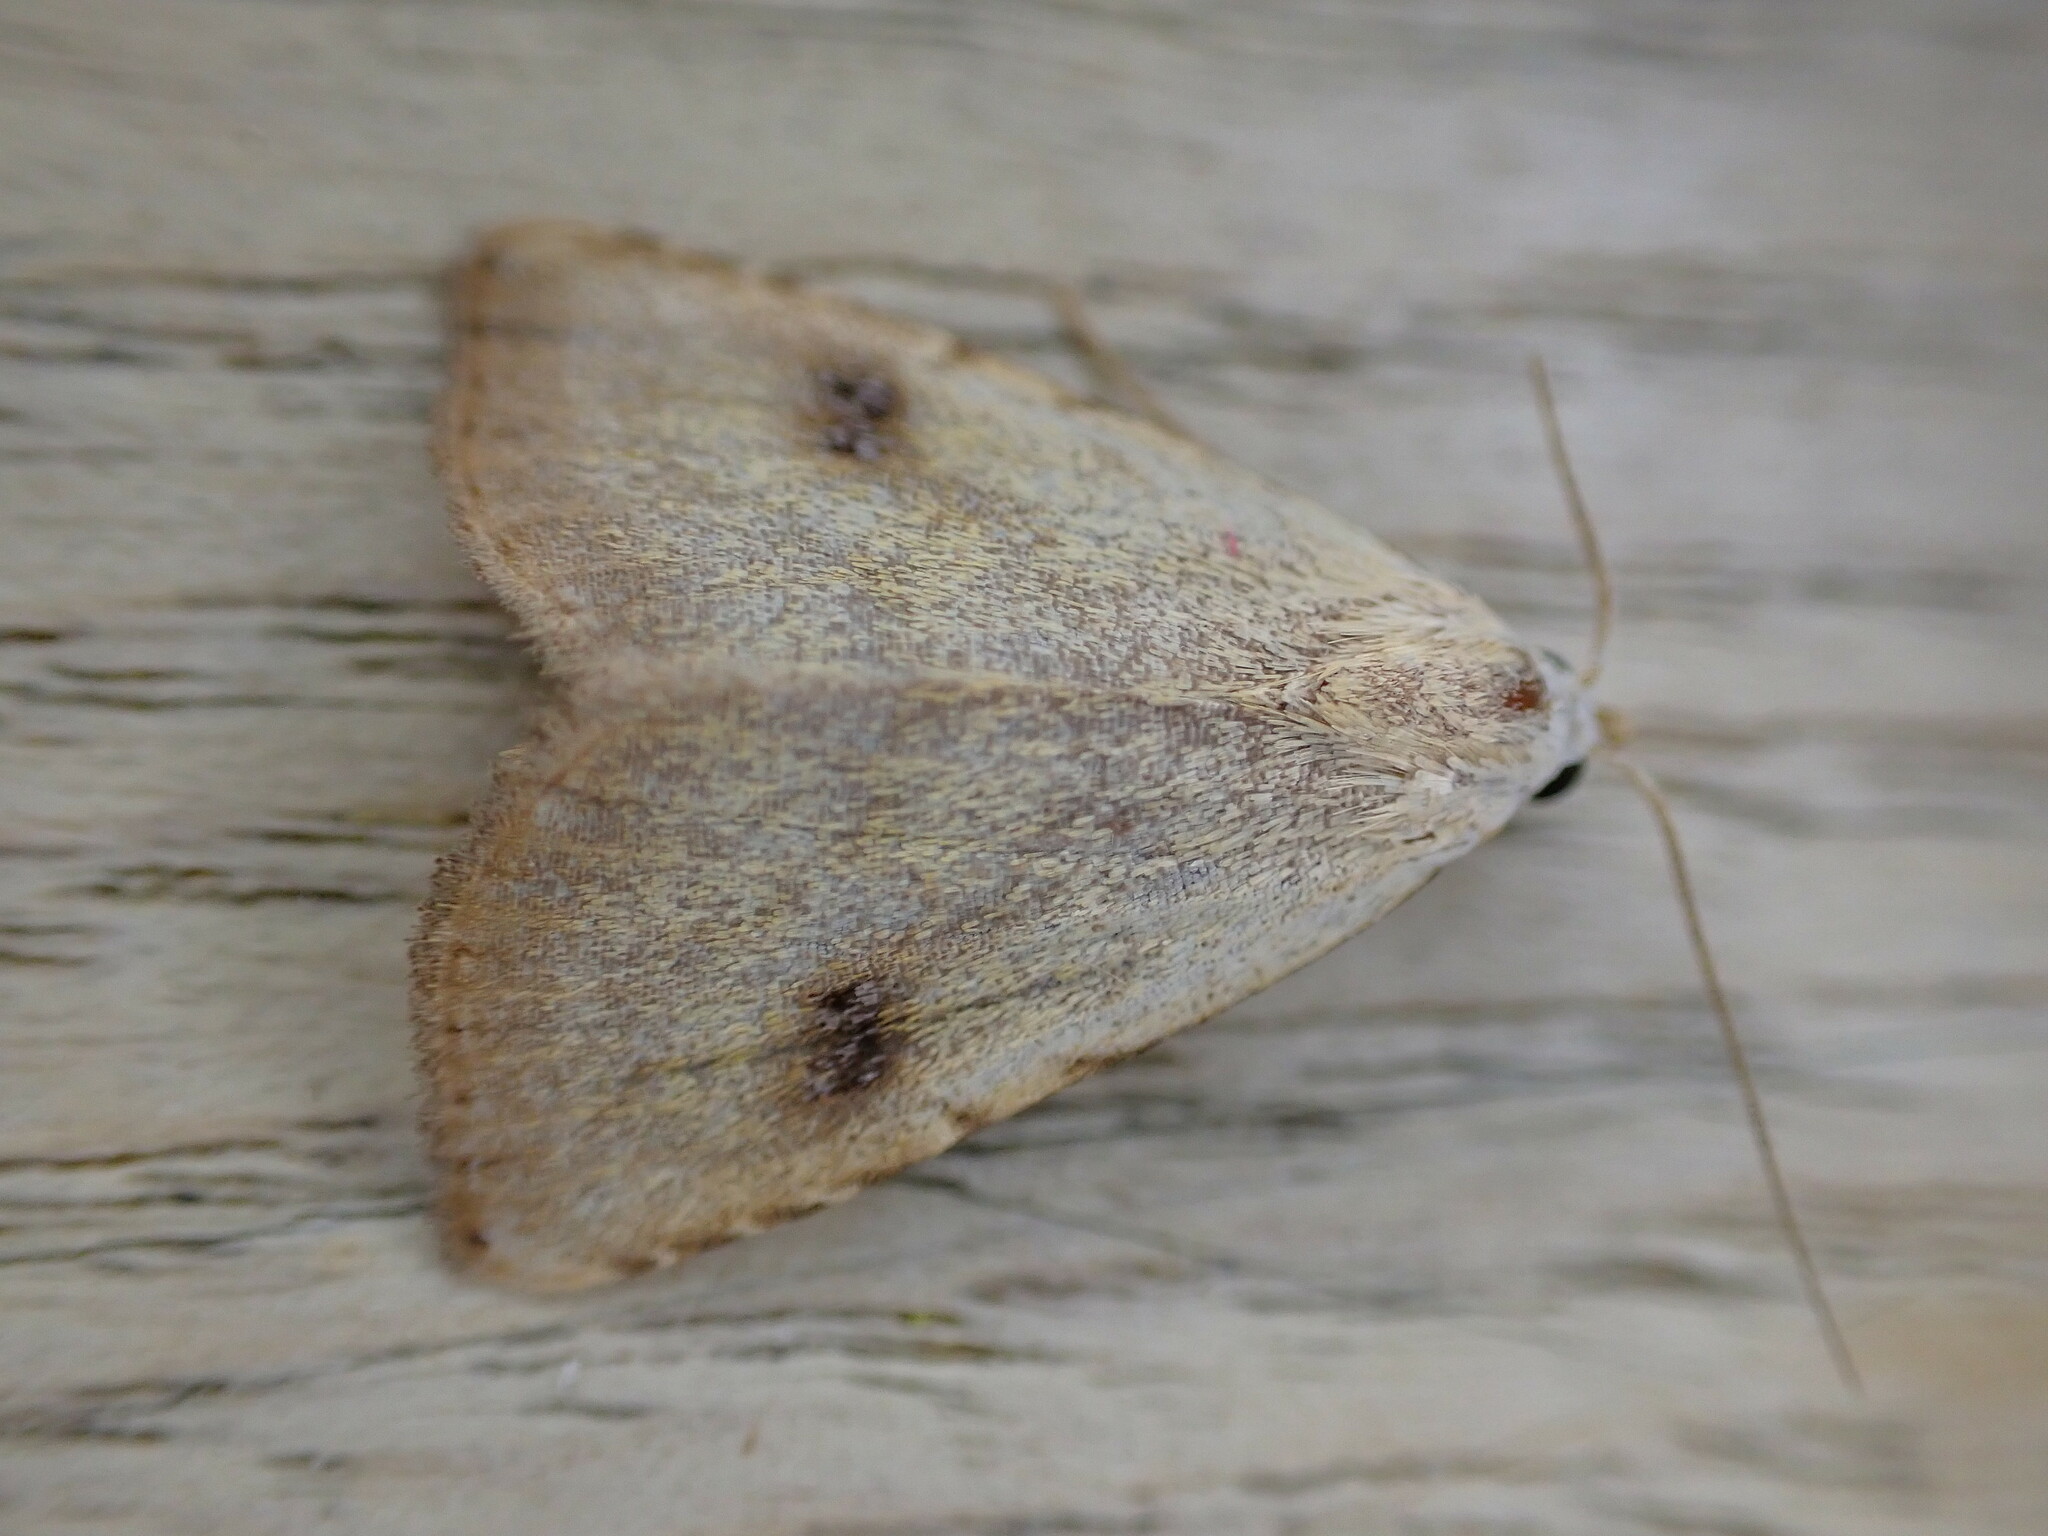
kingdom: Animalia
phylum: Arthropoda
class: Insecta
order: Lepidoptera
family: Erebidae
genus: Rivula
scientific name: Rivula sericealis
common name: Straw dot
